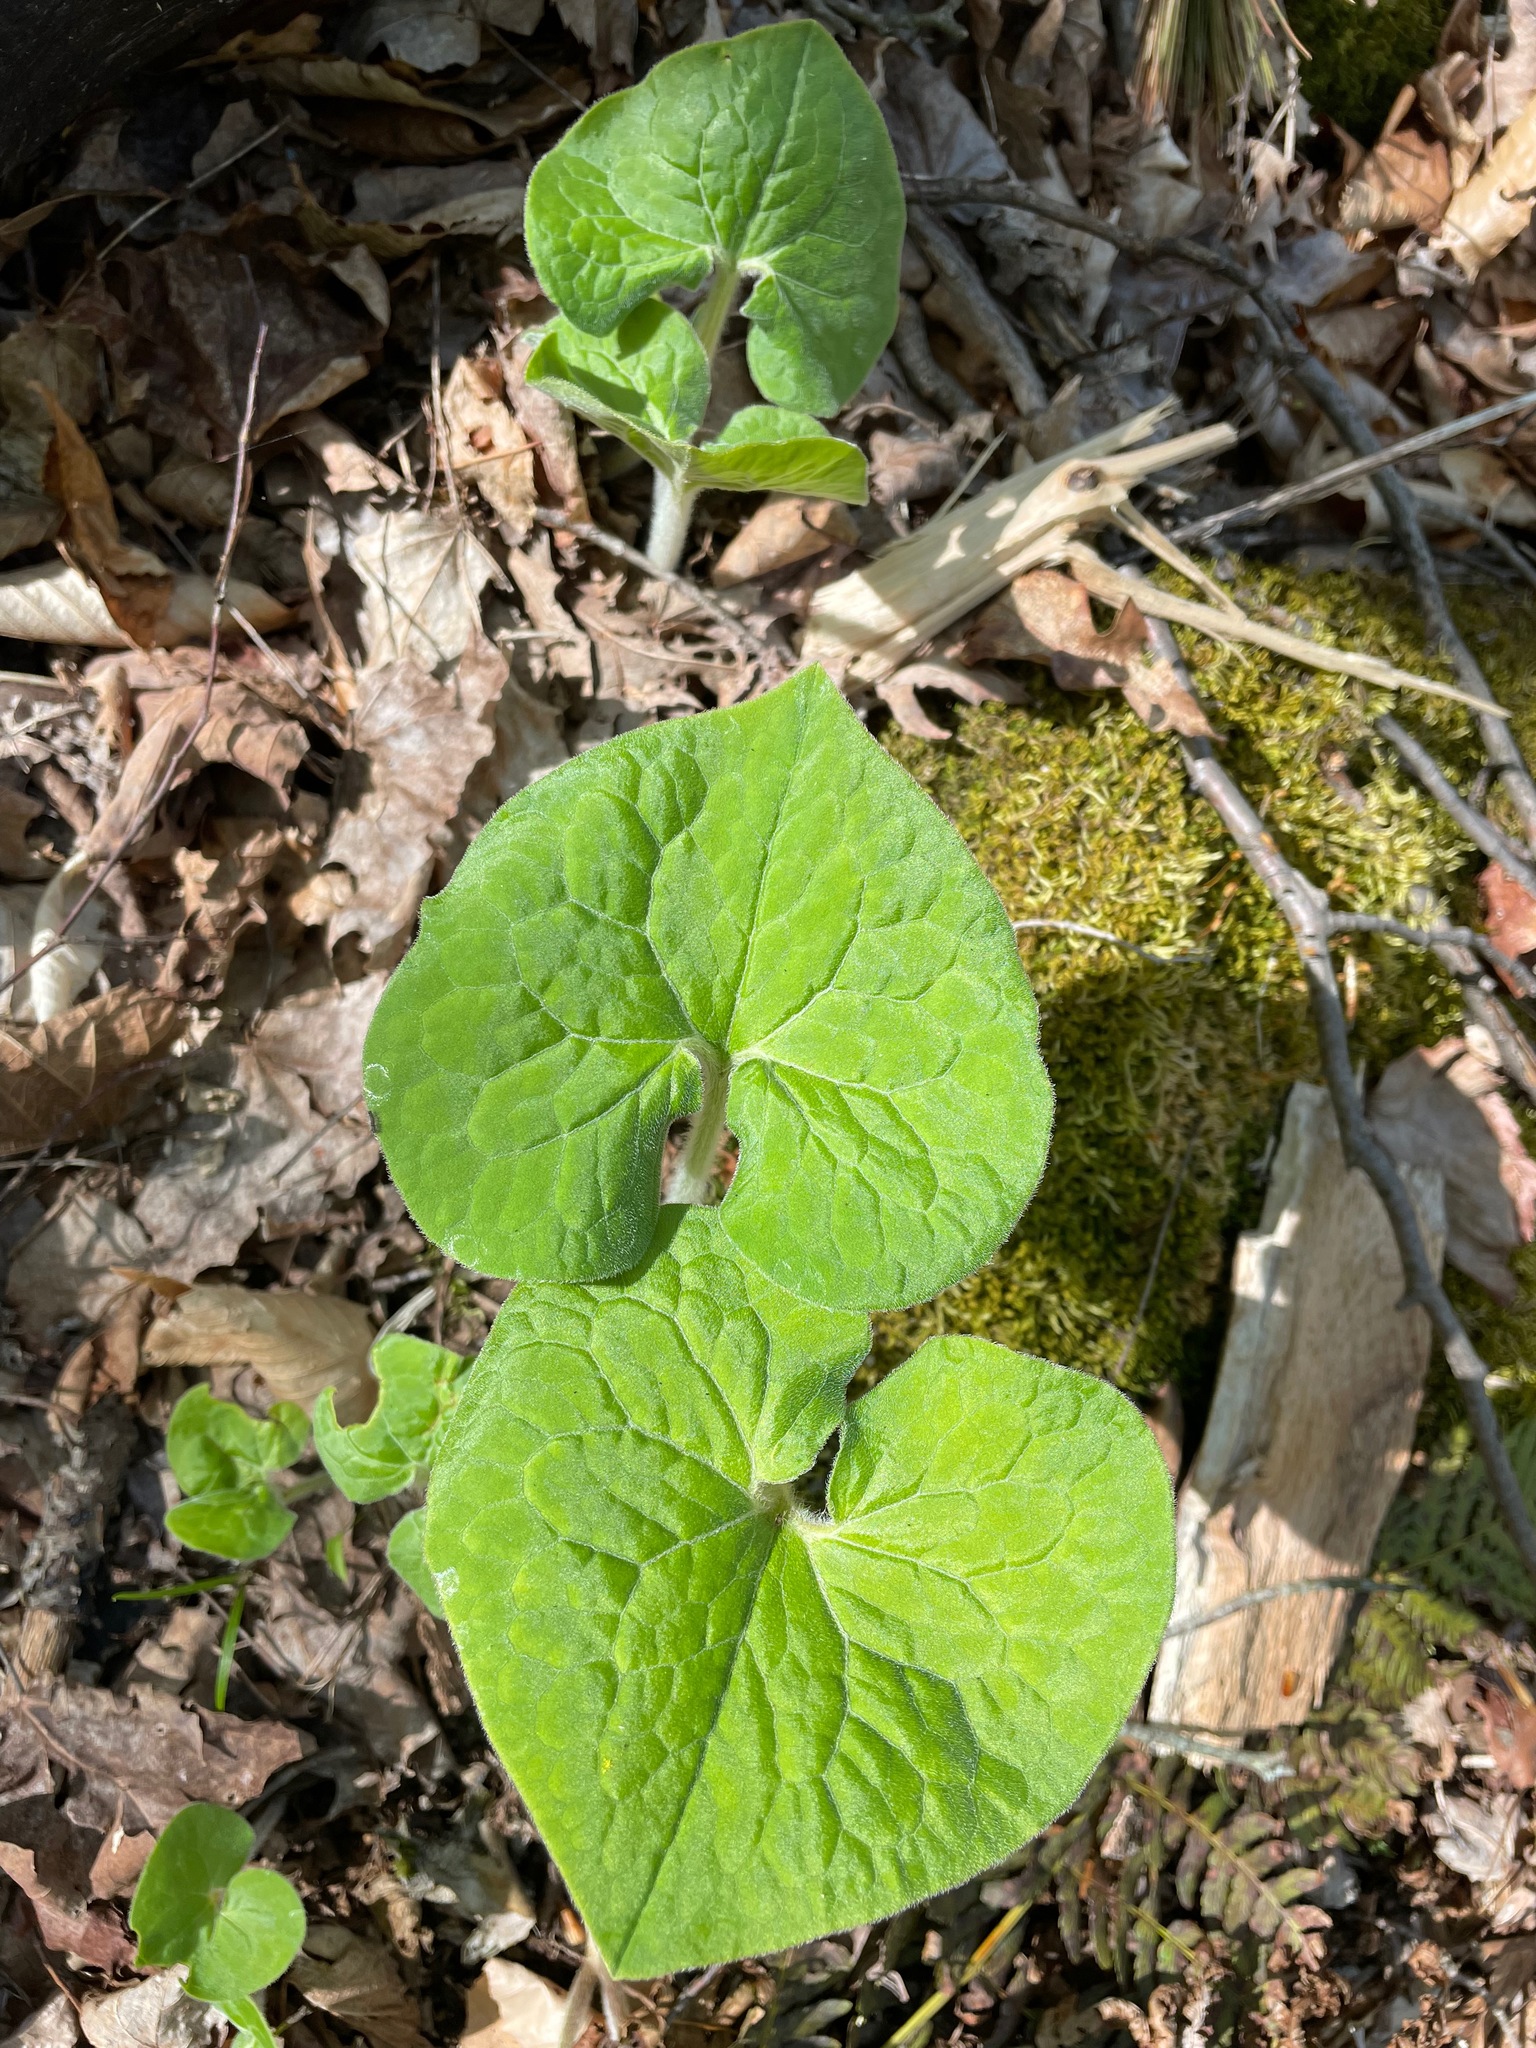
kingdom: Plantae
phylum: Tracheophyta
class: Magnoliopsida
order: Piperales
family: Aristolochiaceae
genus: Asarum
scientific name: Asarum canadense
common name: Wild ginger
